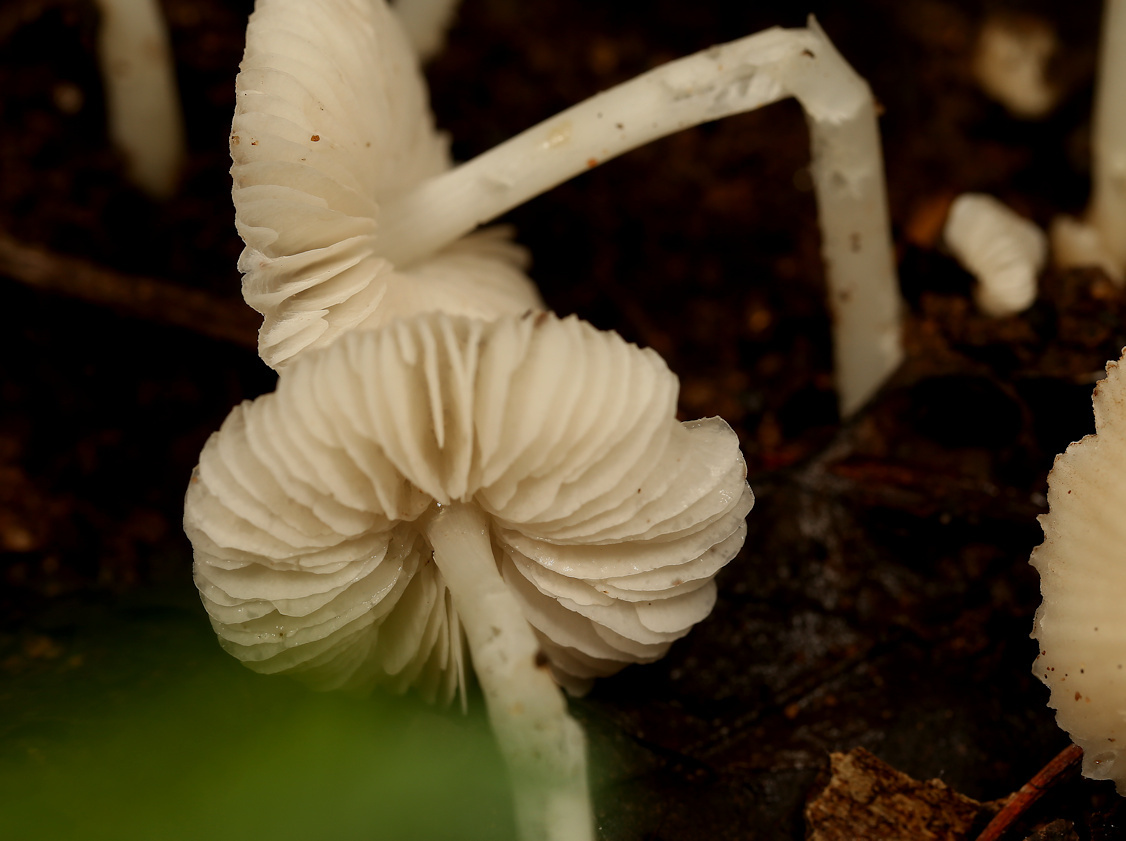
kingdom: Fungi
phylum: Basidiomycota
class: Agaricomycetes
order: Agaricales
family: Lyophyllaceae
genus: Termitomyces
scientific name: Termitomyces microcarpus
